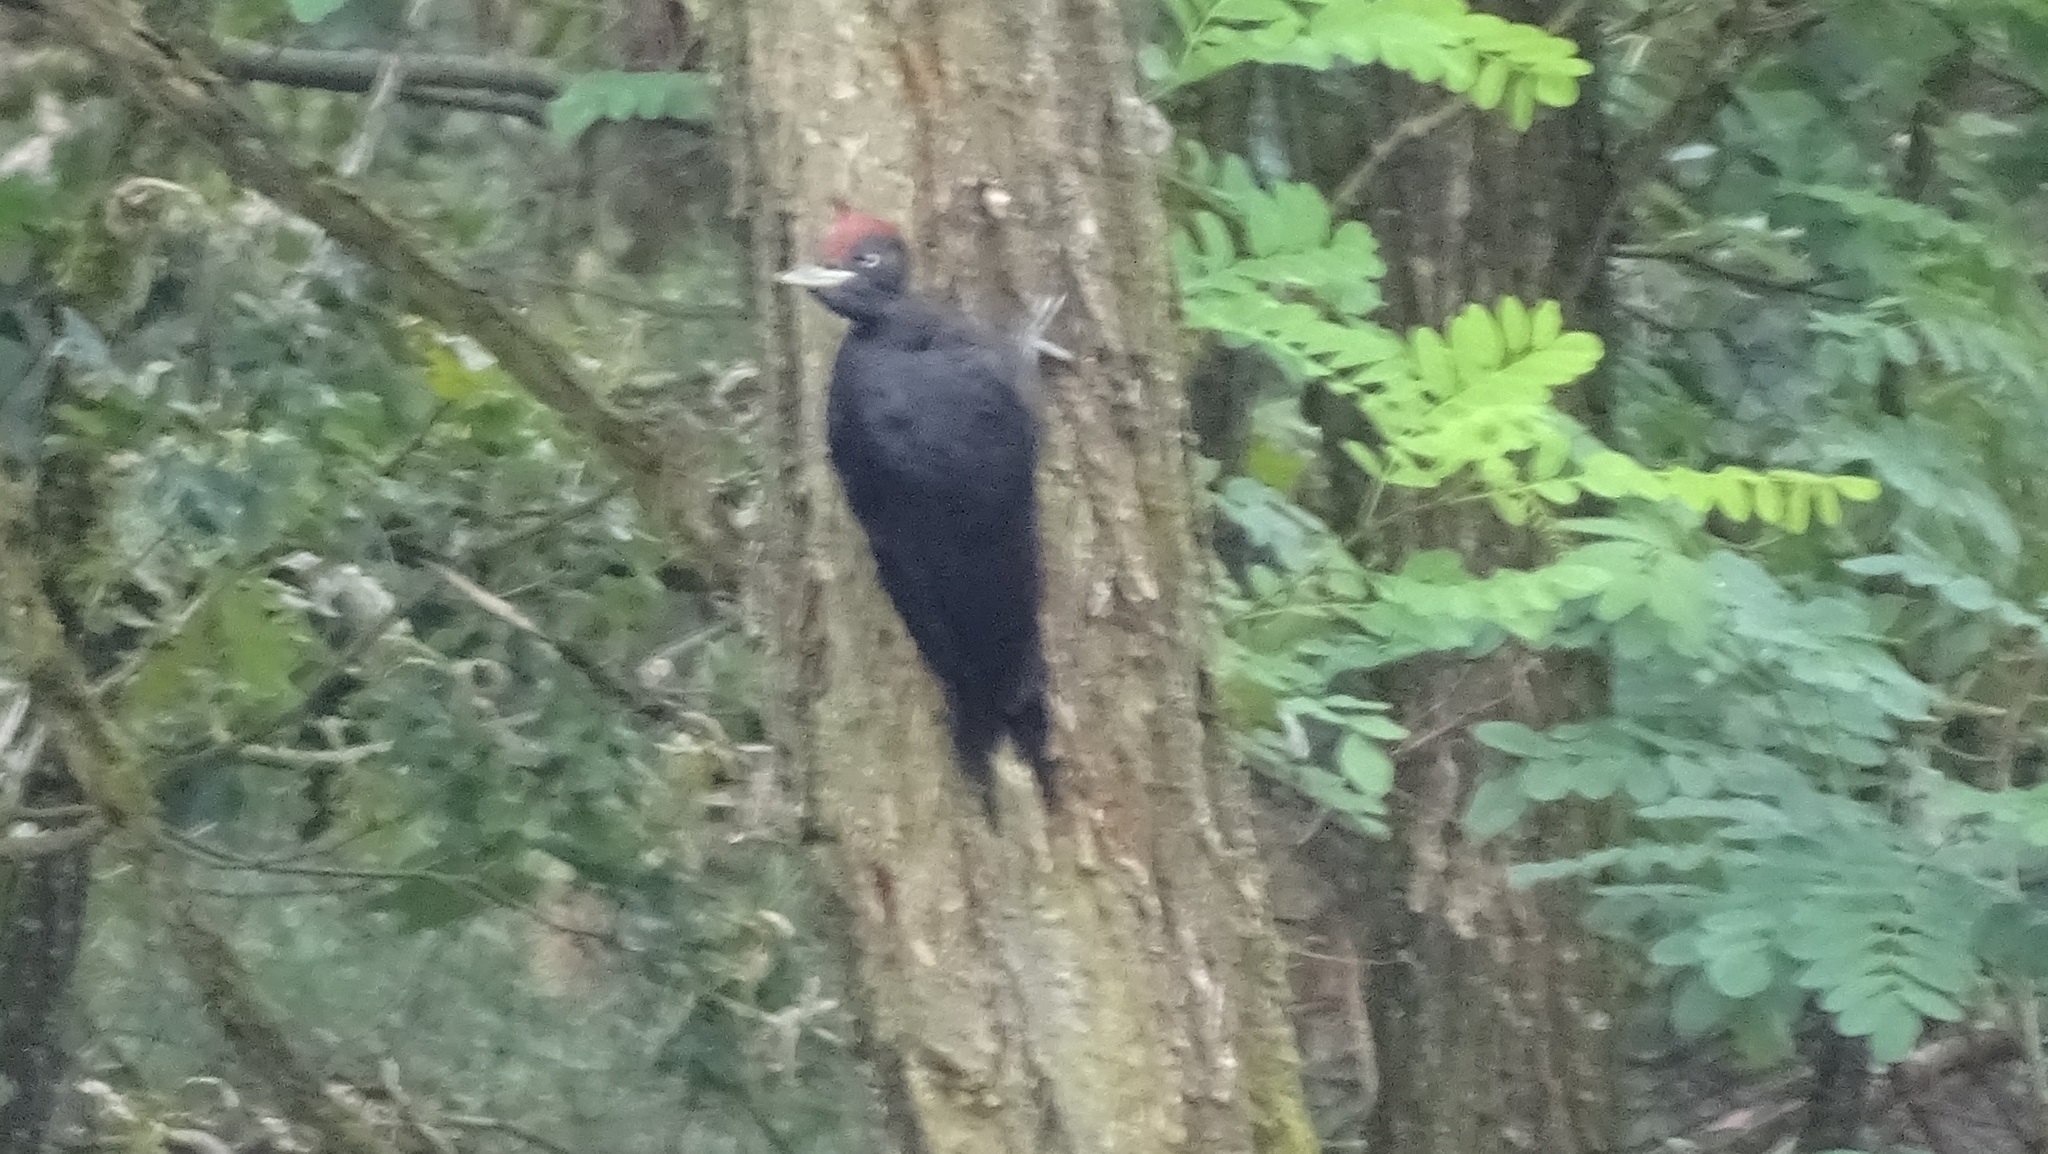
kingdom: Animalia
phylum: Chordata
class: Aves
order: Piciformes
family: Picidae
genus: Dryocopus
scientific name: Dryocopus martius
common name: Black woodpecker
